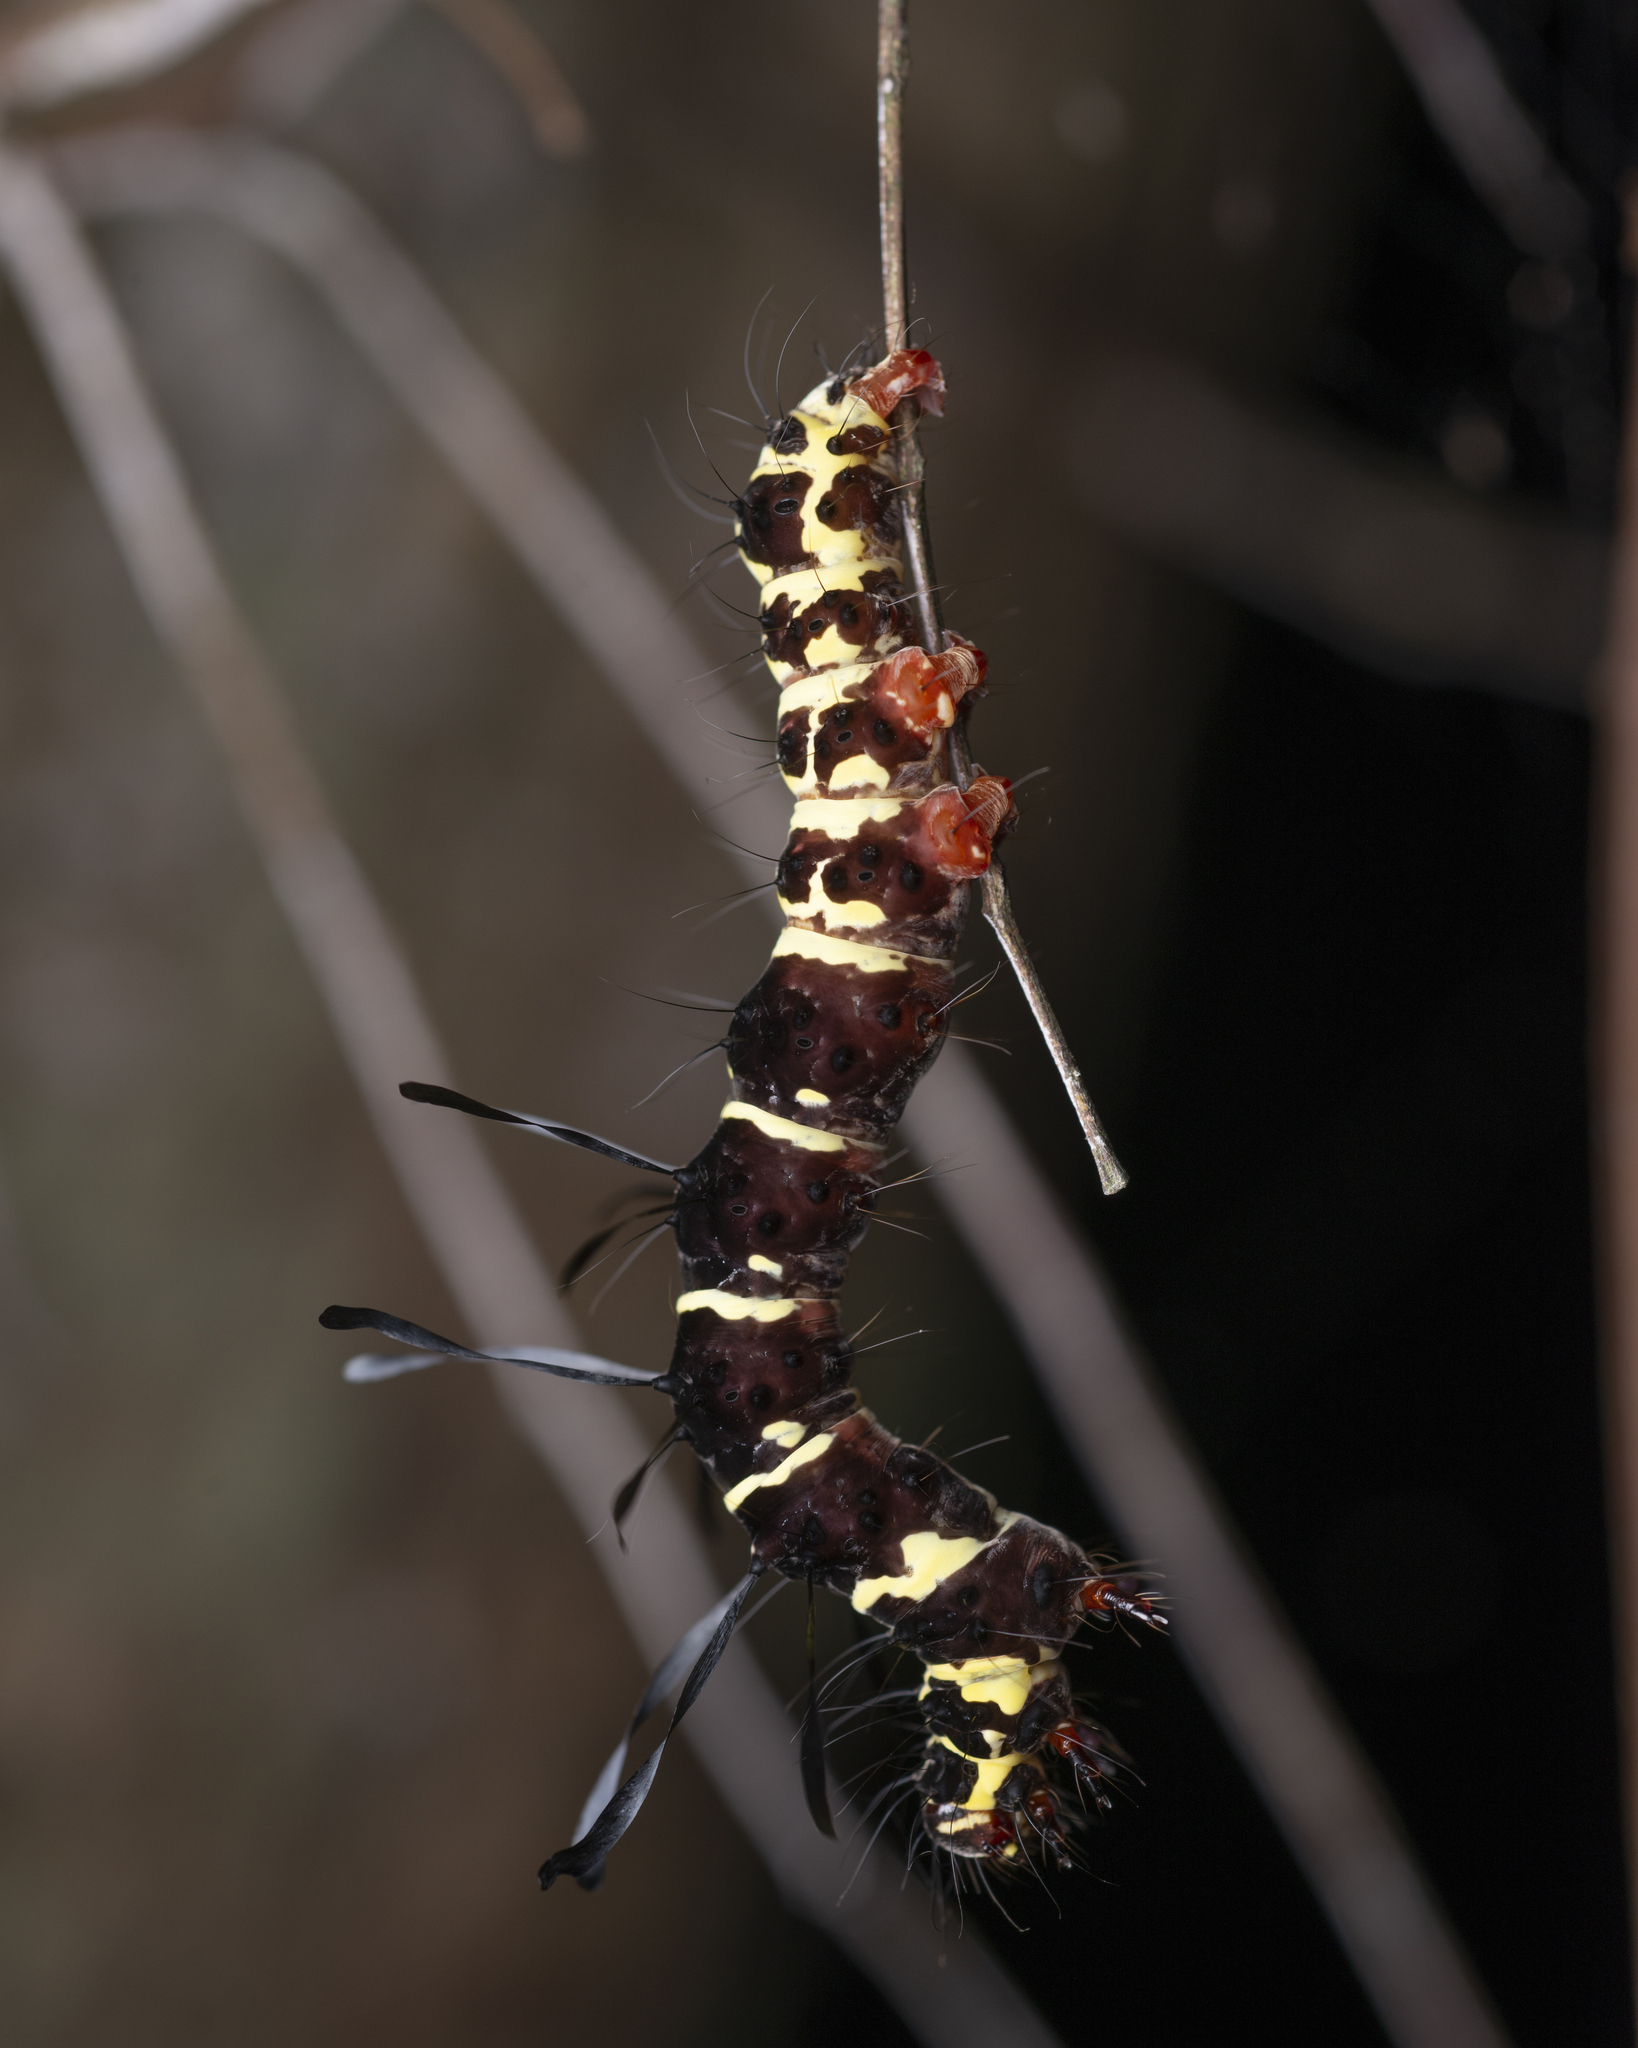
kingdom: Animalia
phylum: Arthropoda
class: Insecta
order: Lepidoptera
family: Erebidae
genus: Tinolius
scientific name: Tinolius hypsana
